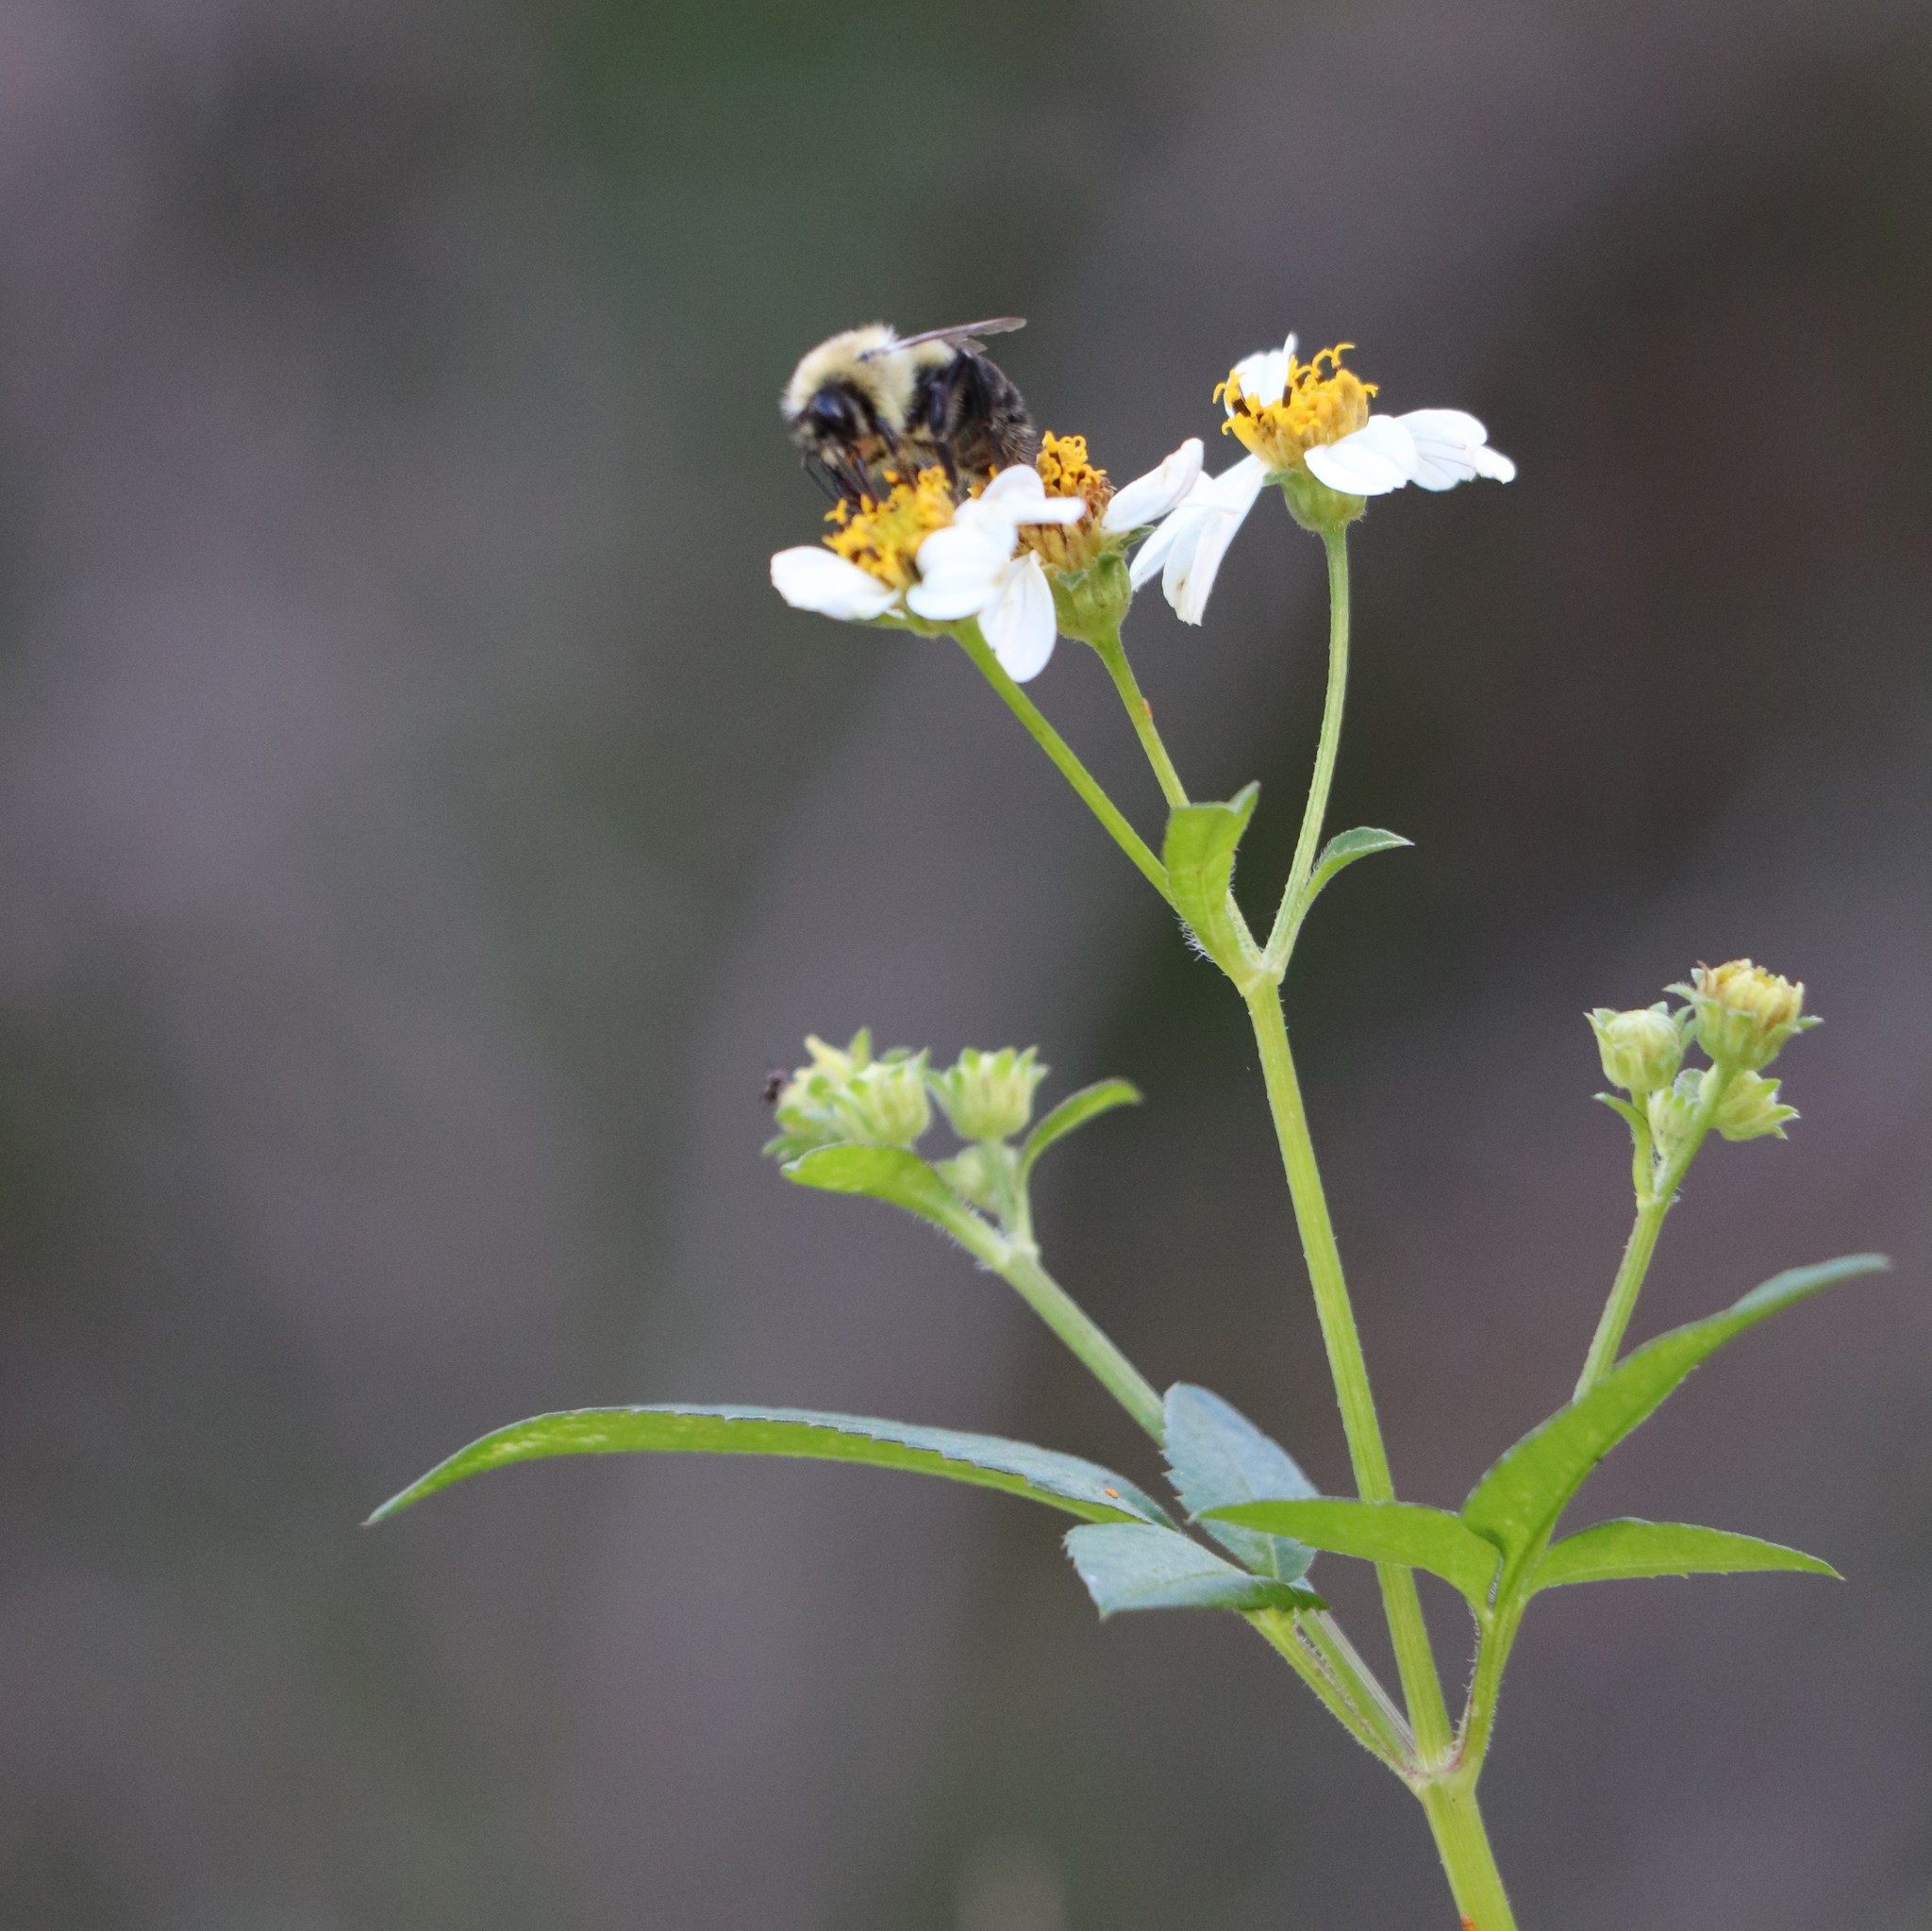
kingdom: Plantae
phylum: Tracheophyta
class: Magnoliopsida
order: Asterales
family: Asteraceae
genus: Bidens
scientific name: Bidens alba
